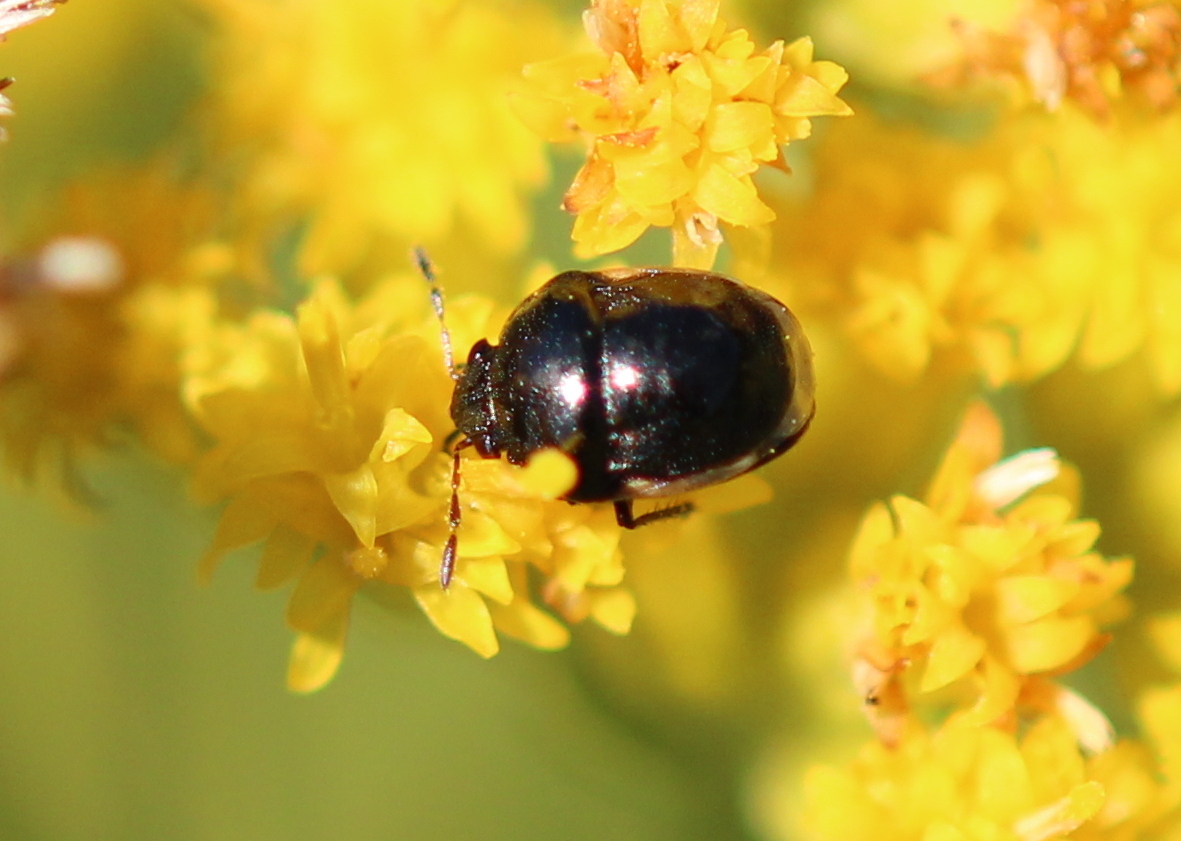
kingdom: Animalia
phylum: Arthropoda
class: Insecta
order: Hemiptera
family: Thyreocoridae
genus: Corimelaena
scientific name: Corimelaena pulicaria
